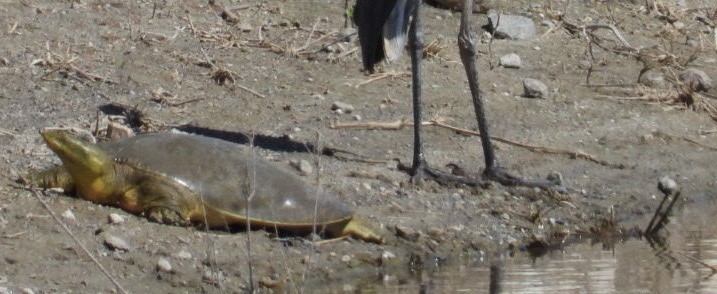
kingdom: Animalia
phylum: Chordata
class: Testudines
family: Trionychidae
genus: Apalone
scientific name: Apalone spinifera
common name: Spiny softshell turtle
